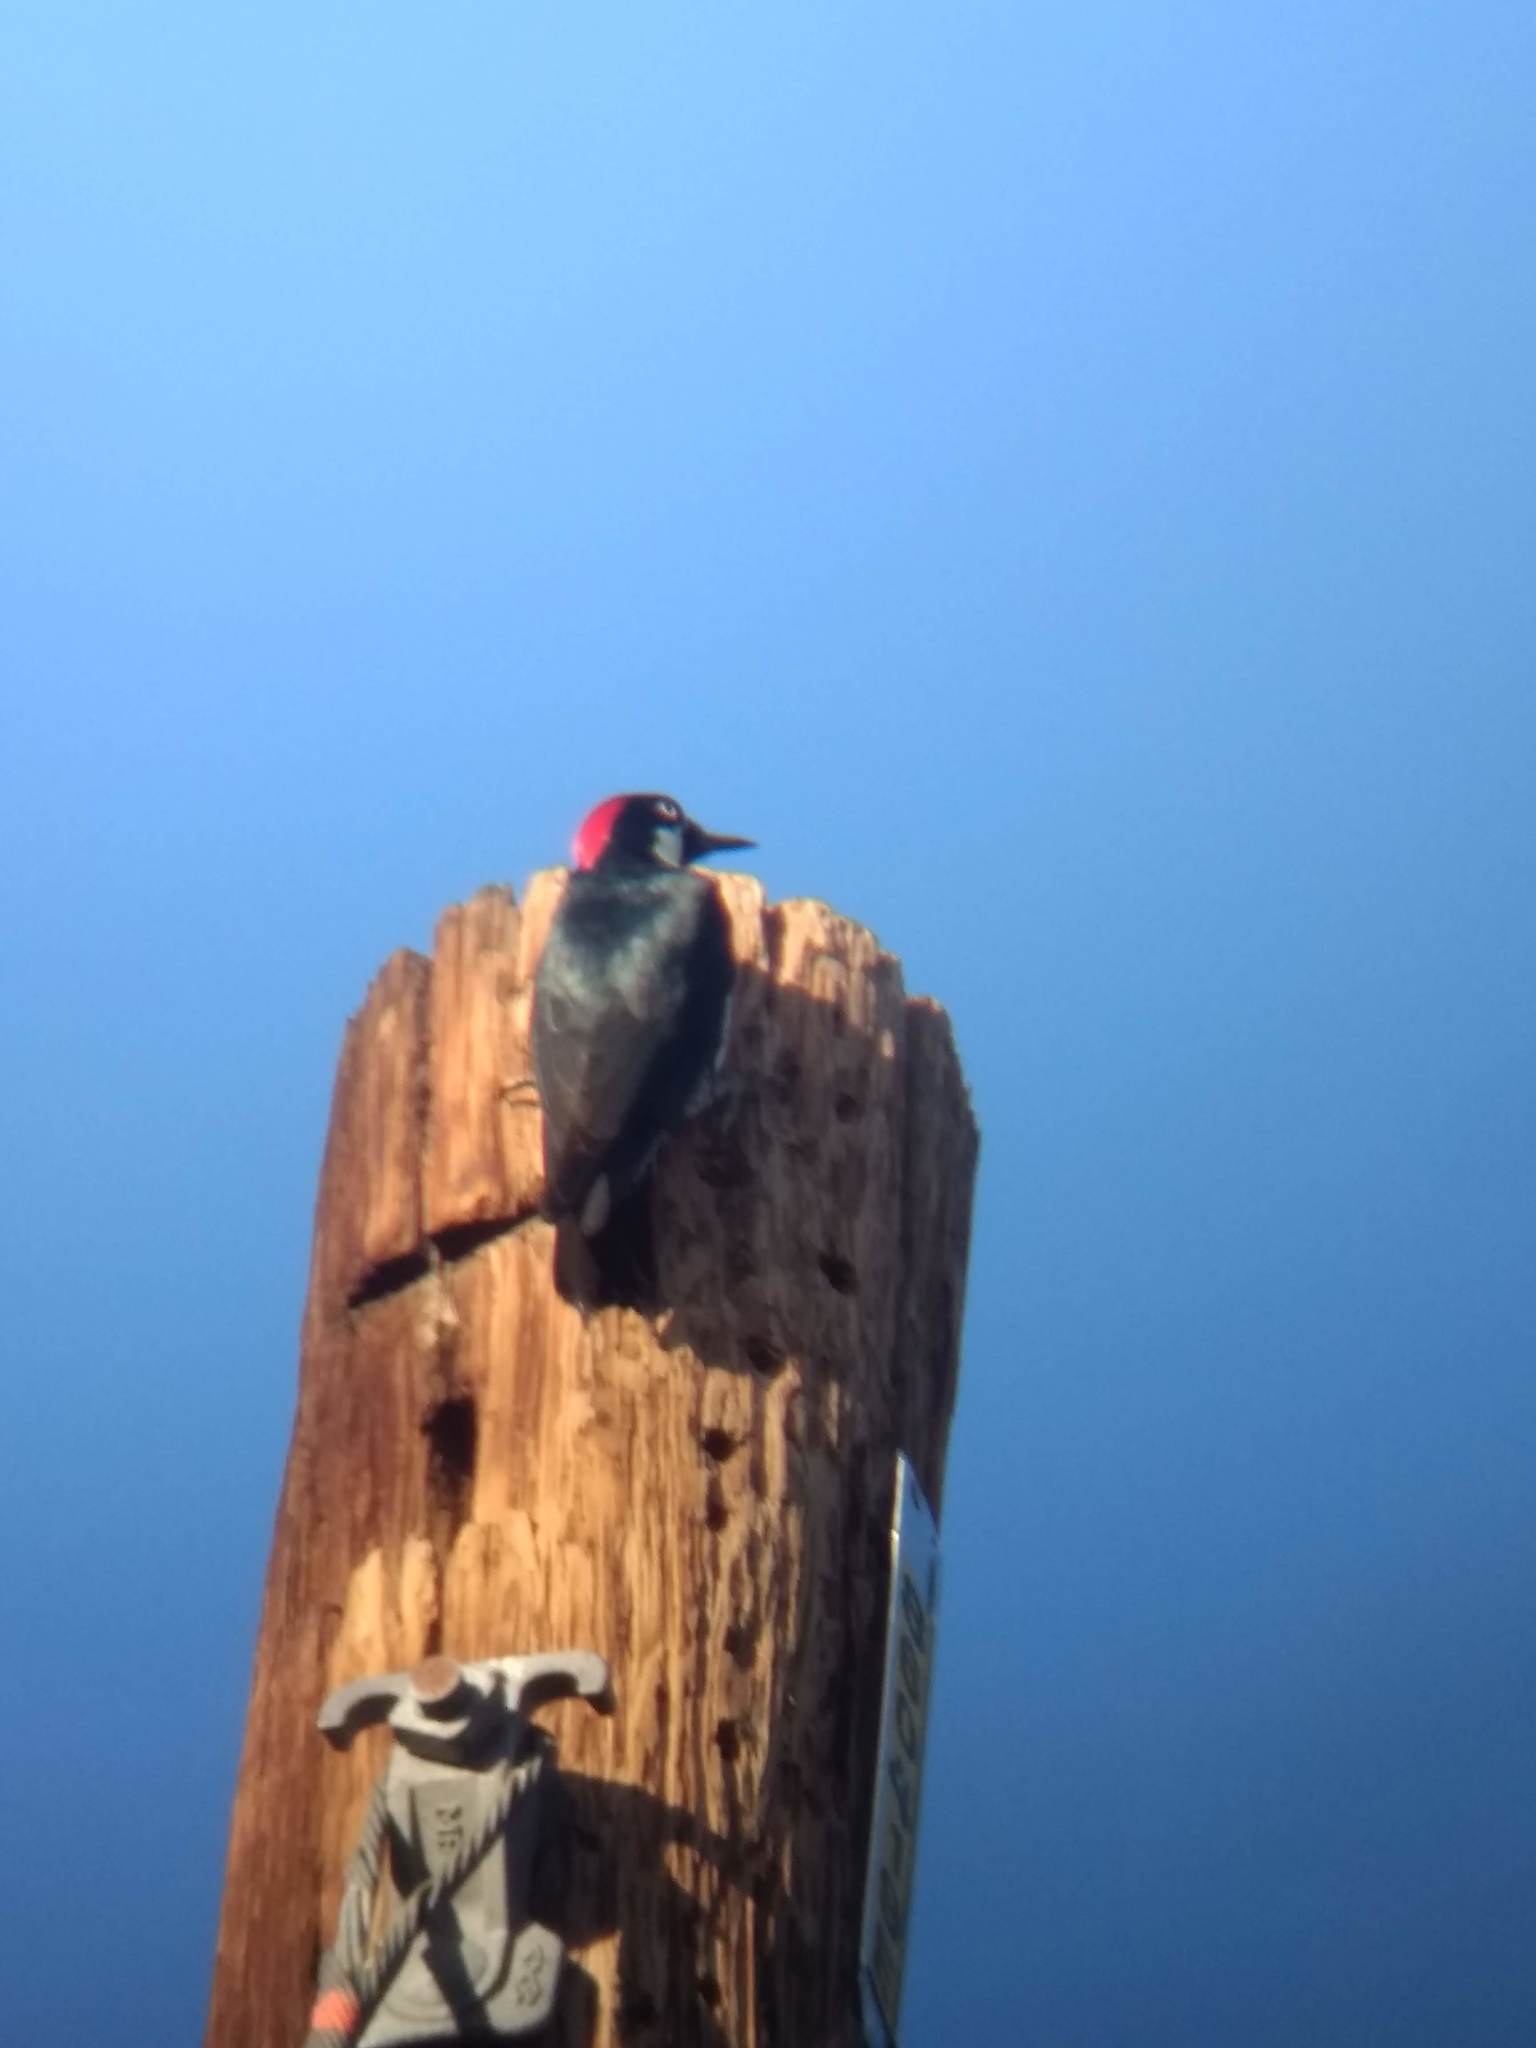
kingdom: Animalia
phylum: Chordata
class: Aves
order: Piciformes
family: Picidae
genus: Melanerpes
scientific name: Melanerpes formicivorus
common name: Acorn woodpecker
